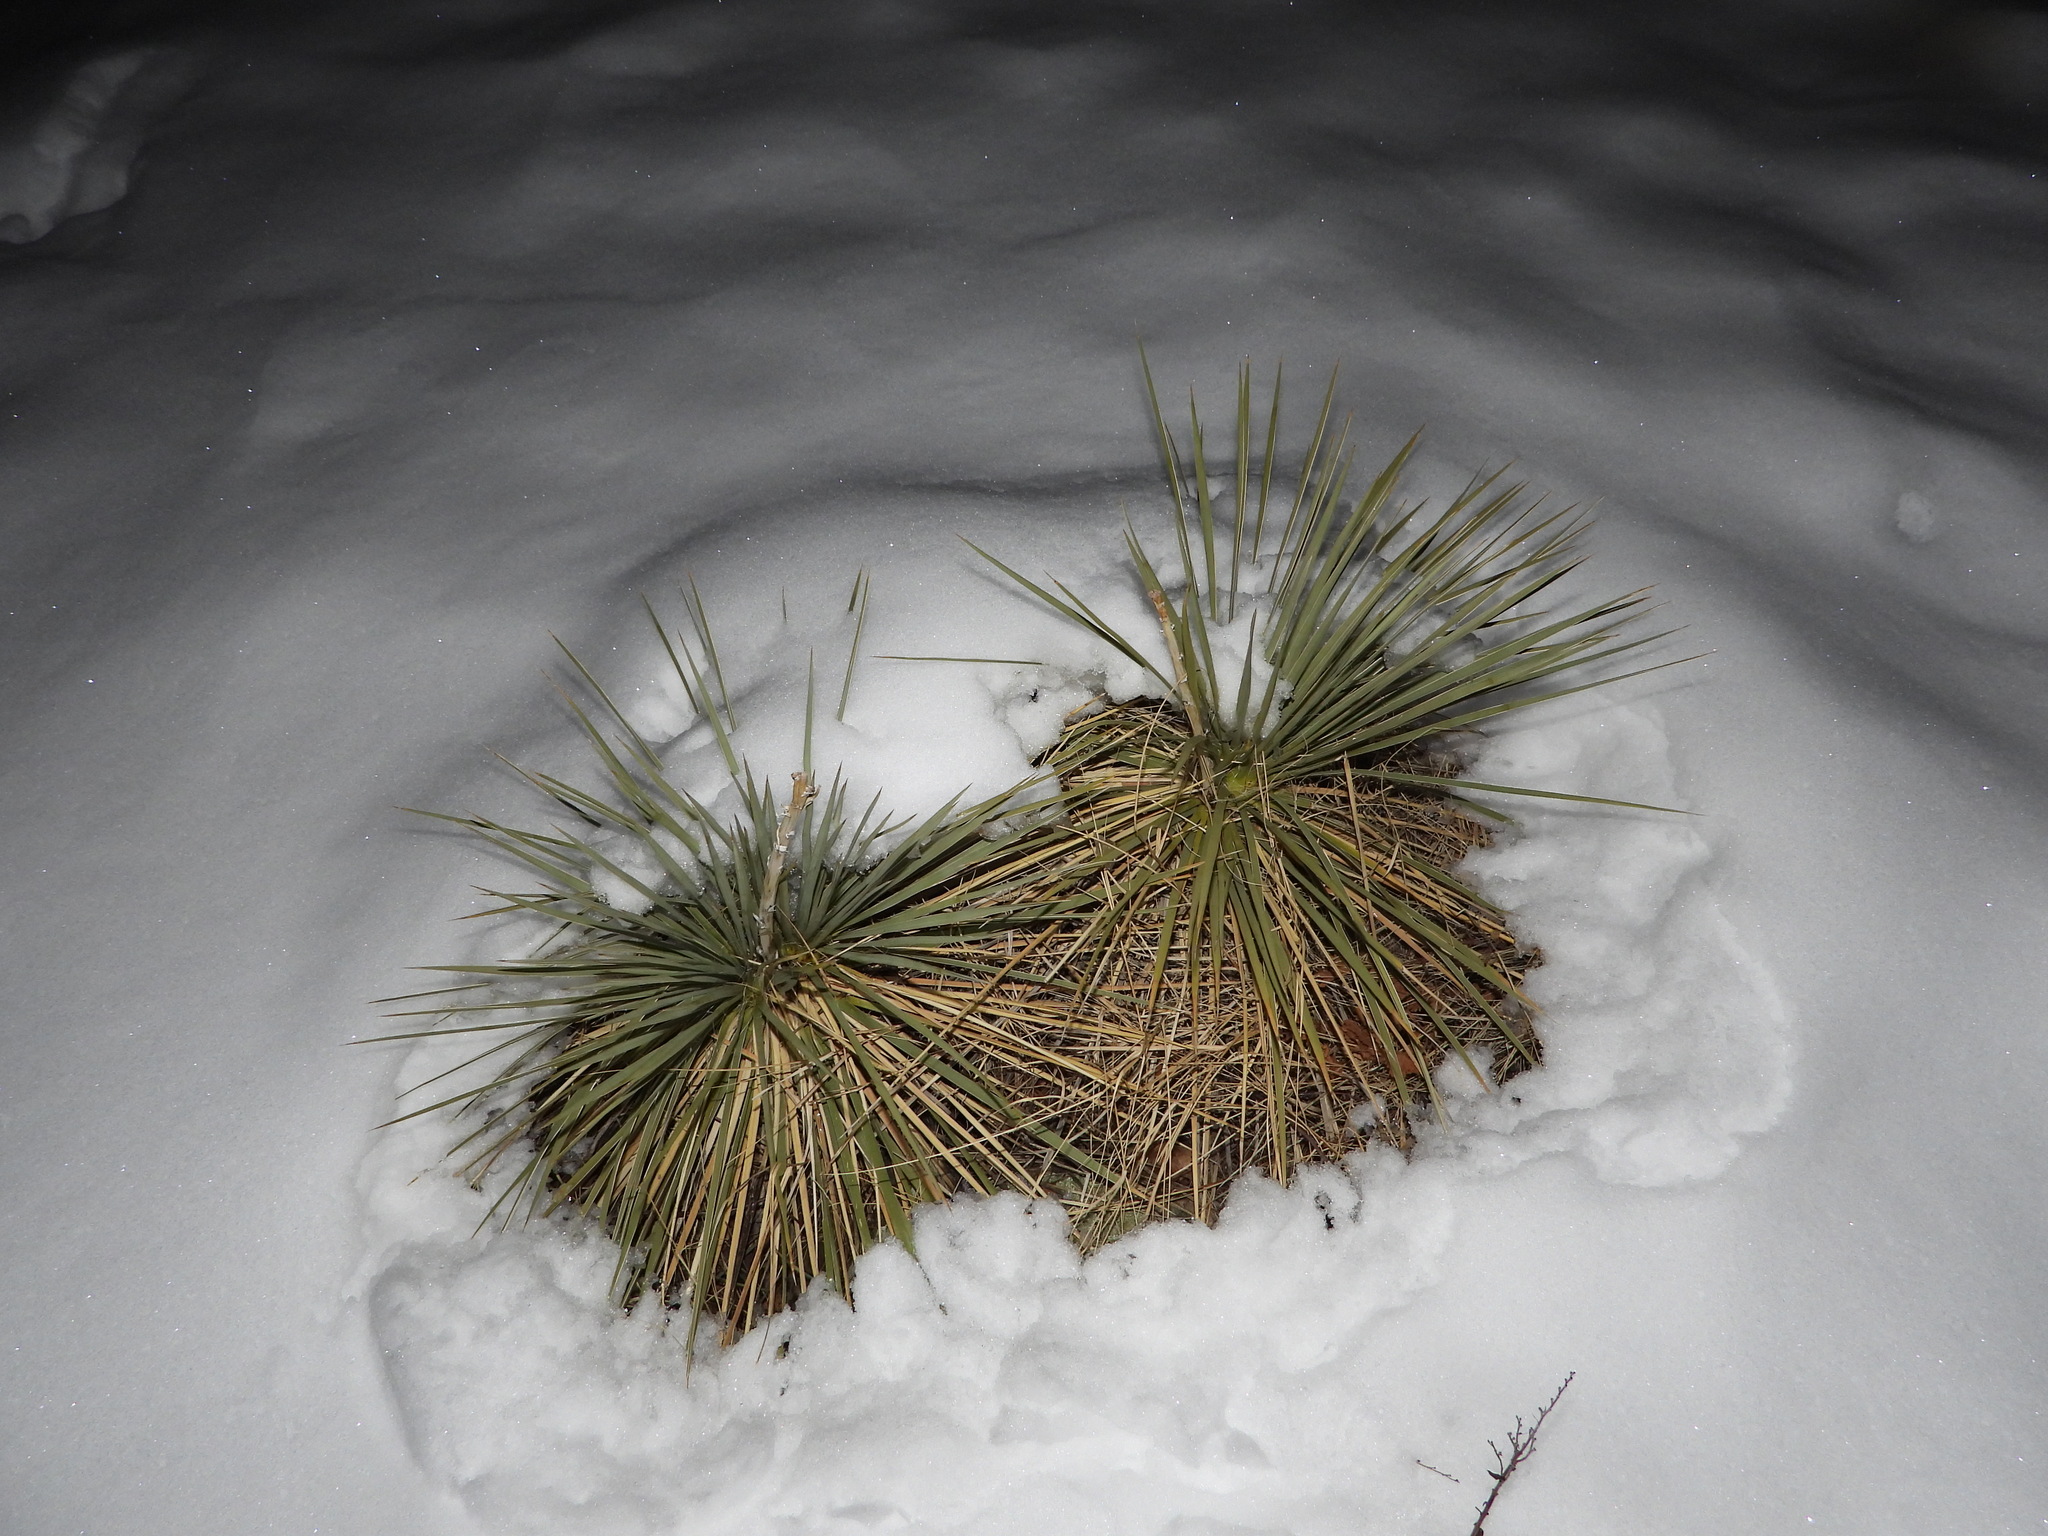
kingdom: Plantae
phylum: Tracheophyta
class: Liliopsida
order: Asparagales
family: Asparagaceae
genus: Yucca
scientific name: Yucca glauca
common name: Great plains yucca
